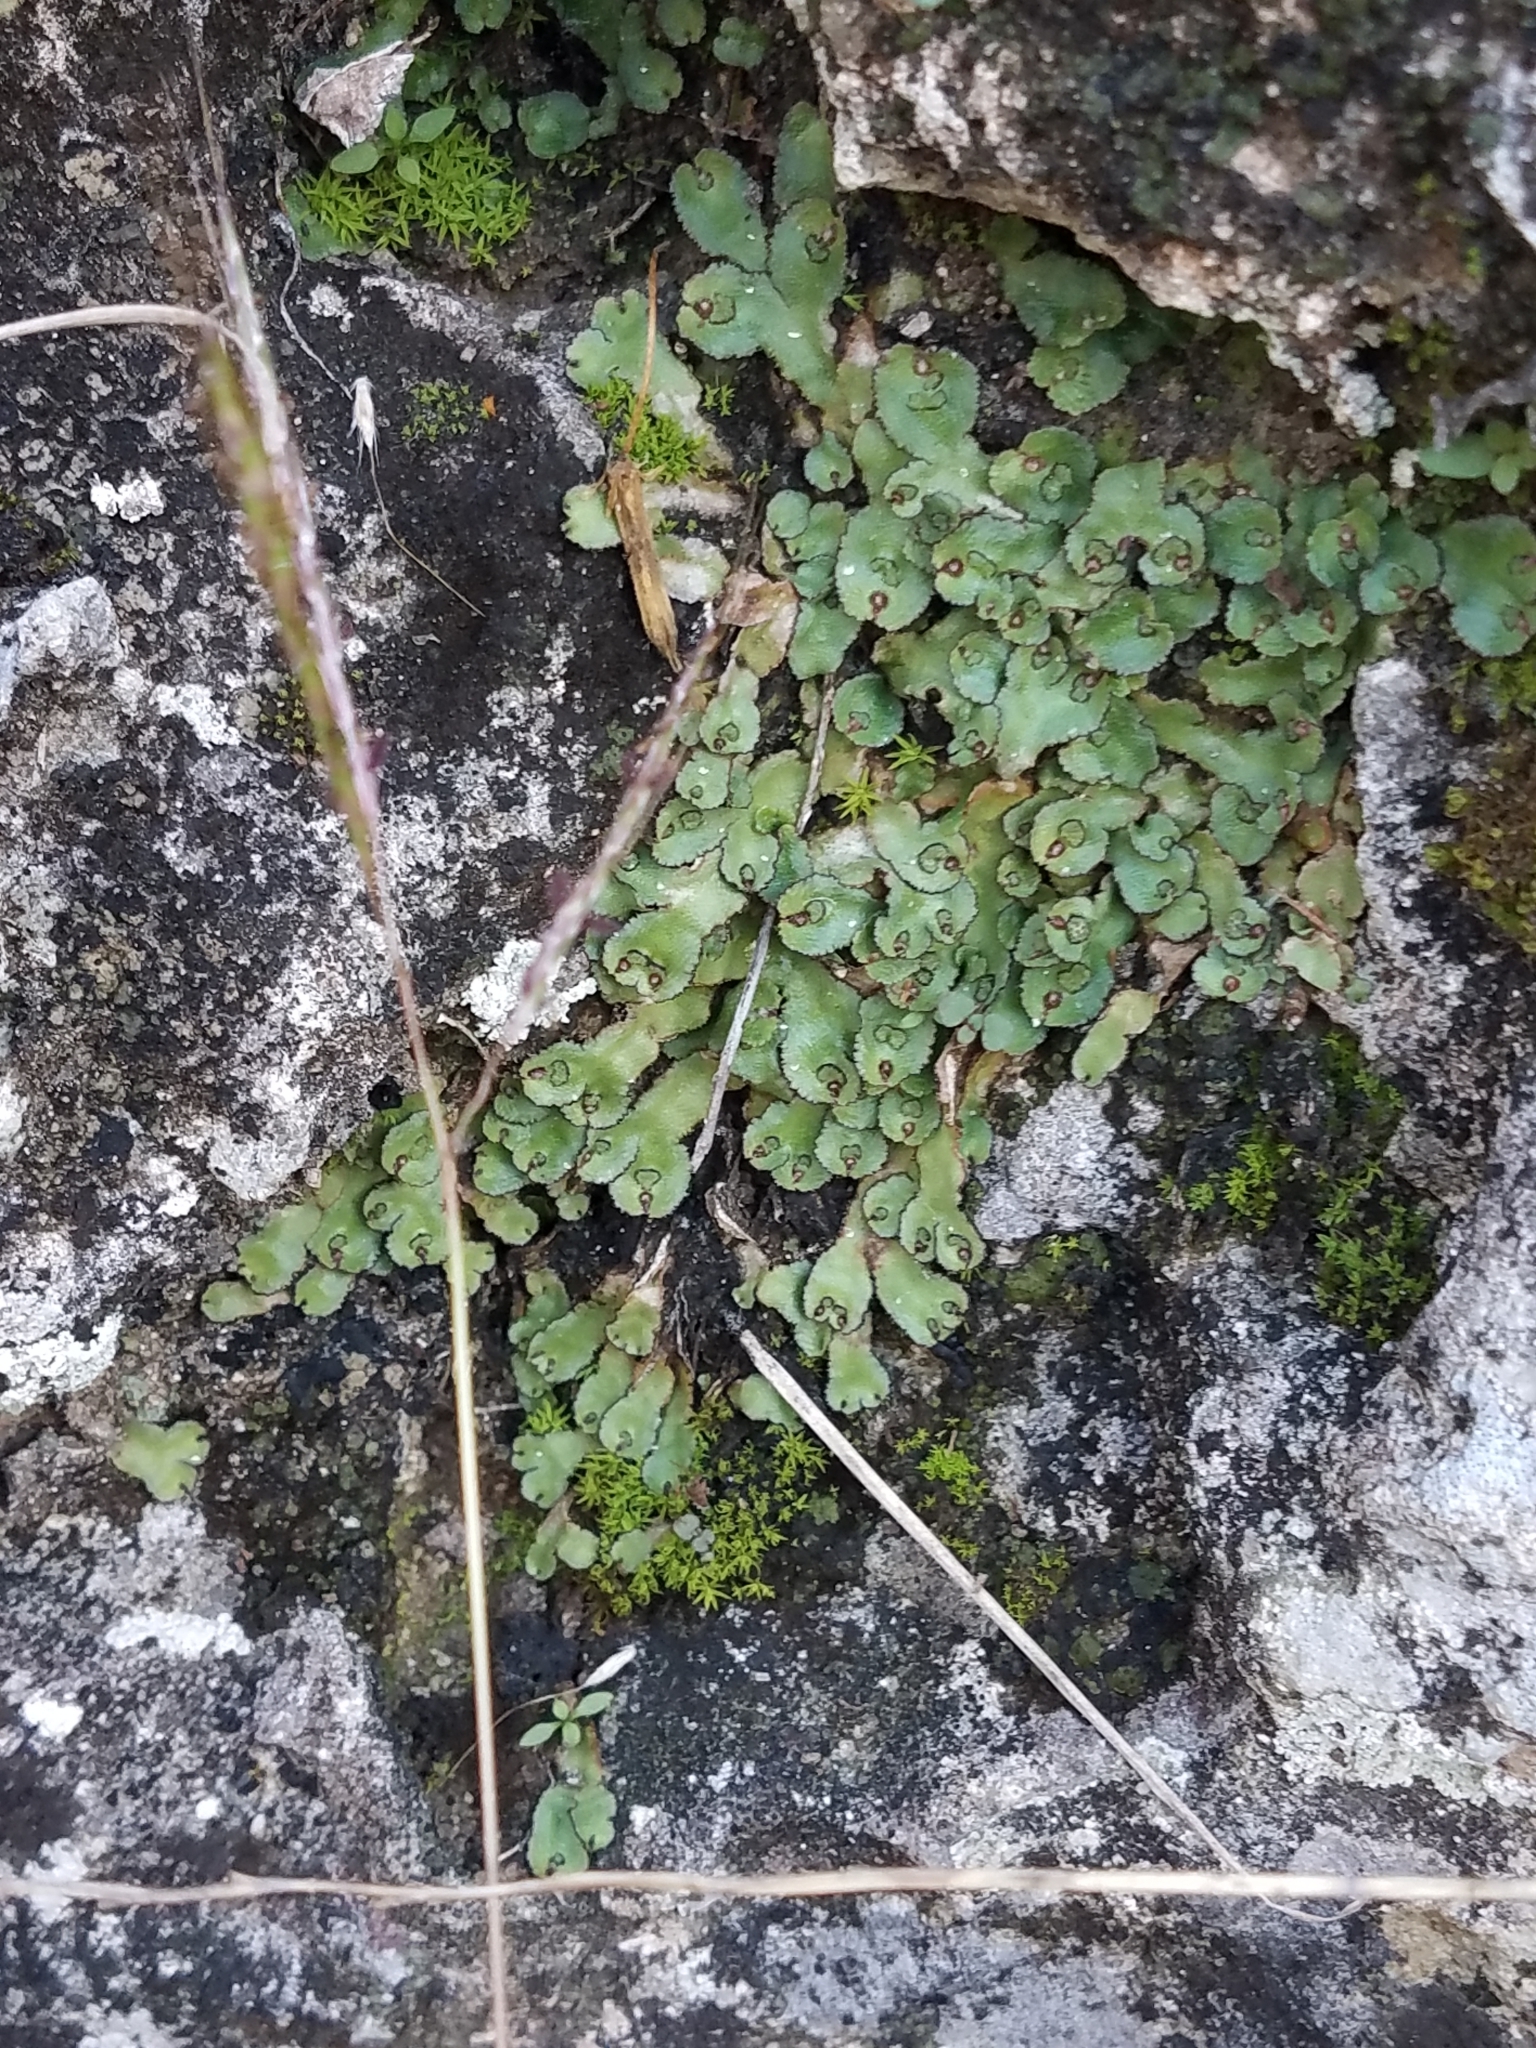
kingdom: Plantae
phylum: Marchantiophyta
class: Marchantiopsida
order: Marchantiales
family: Aytoniaceae
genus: Reboulia
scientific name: Reboulia hemisphaerica
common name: Purple-margined liverwort
